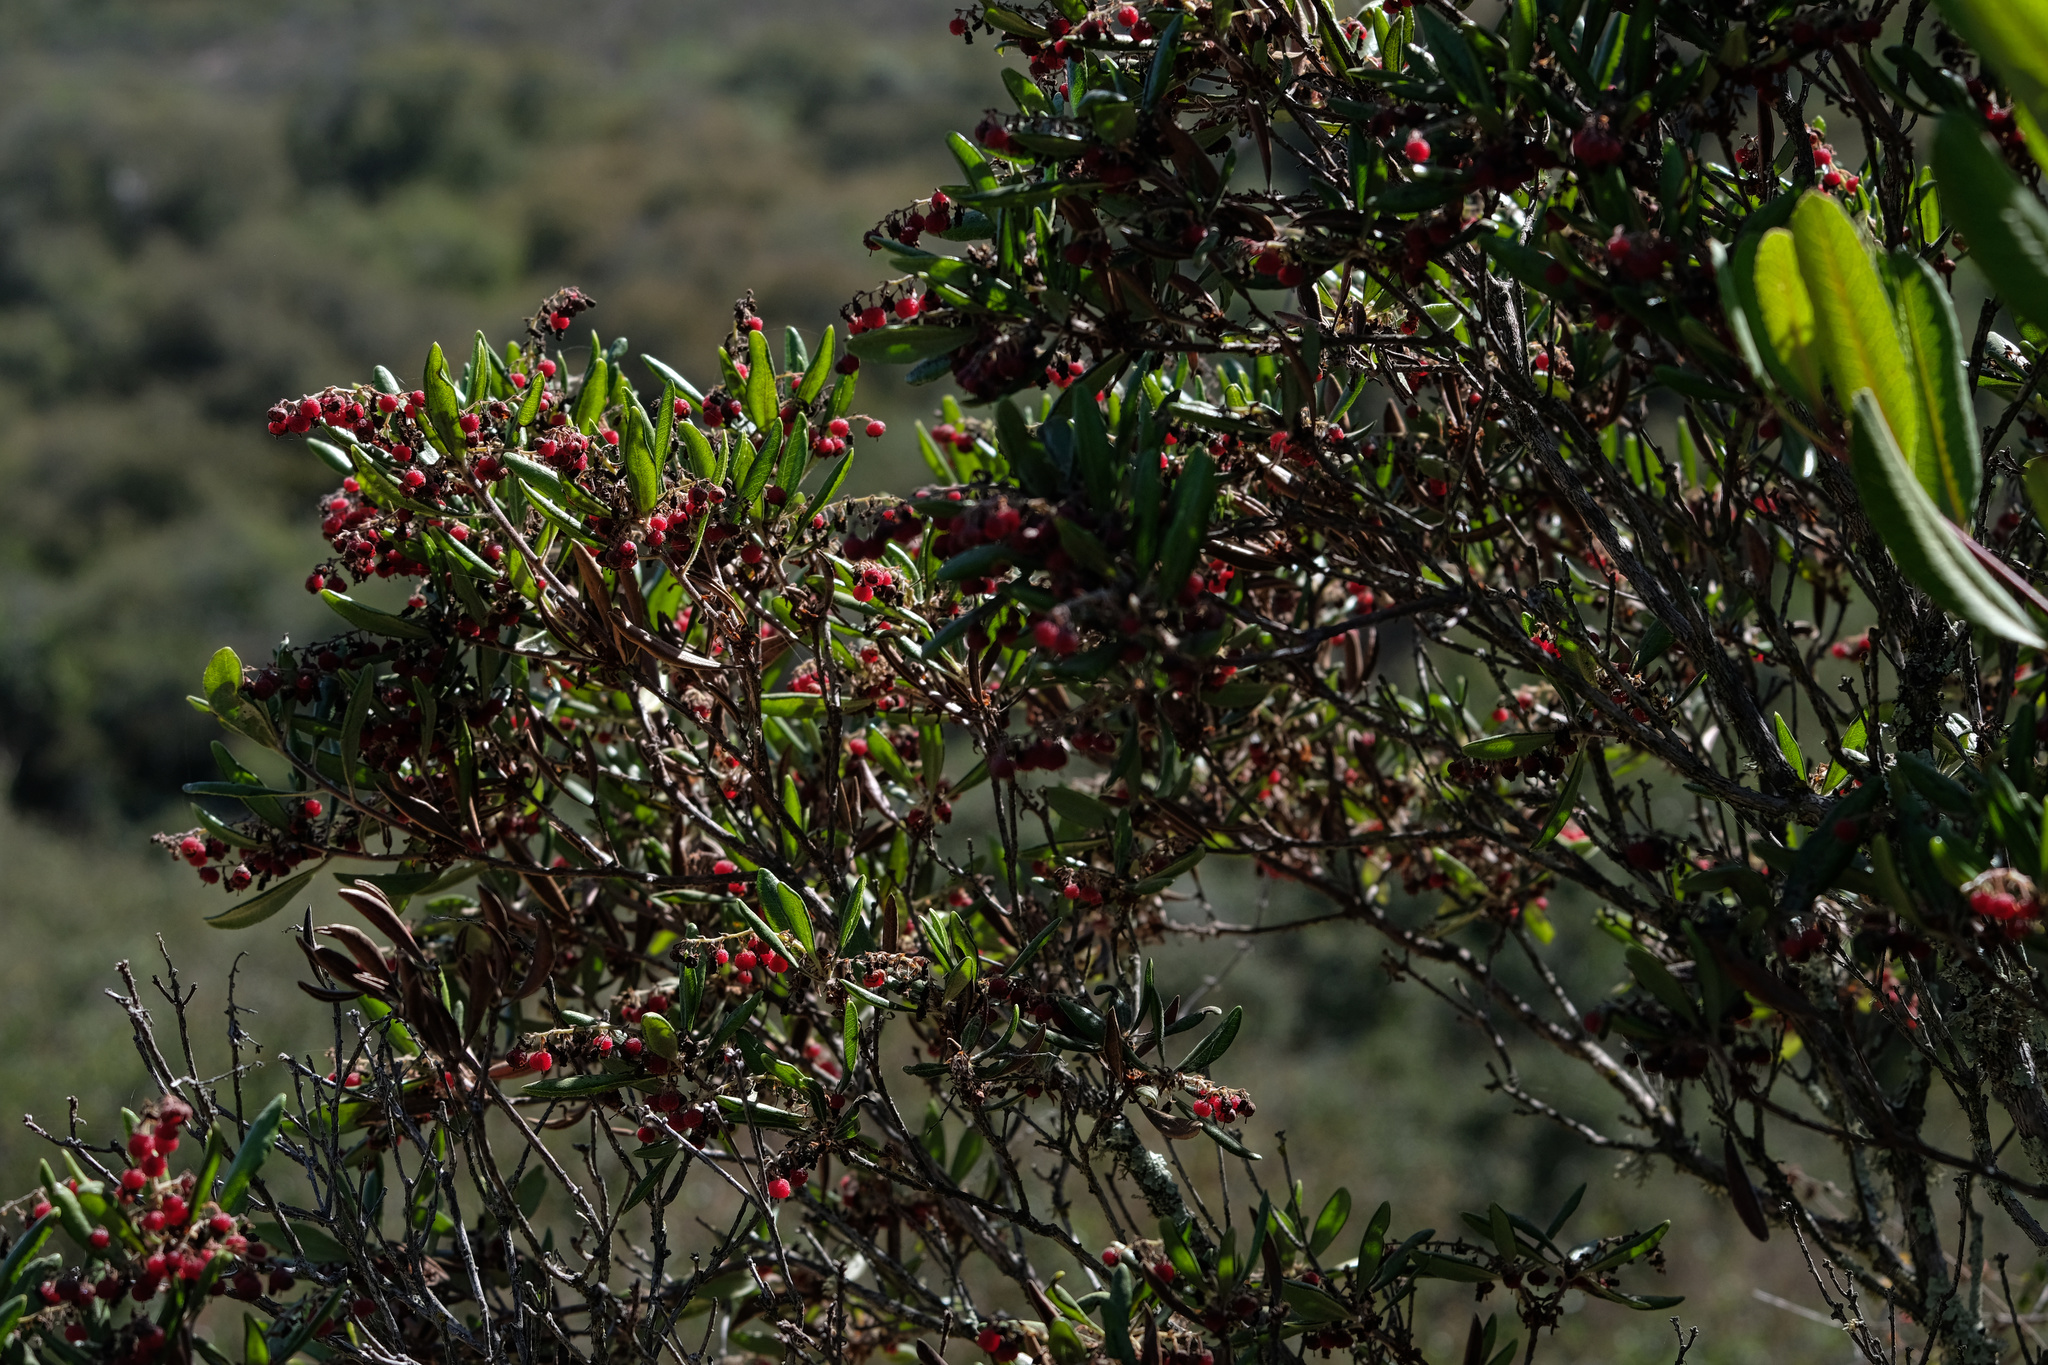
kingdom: Plantae
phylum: Tracheophyta
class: Magnoliopsida
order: Ericales
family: Ericaceae
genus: Comarostaphylis
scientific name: Comarostaphylis diversifolia
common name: Summer-holly
